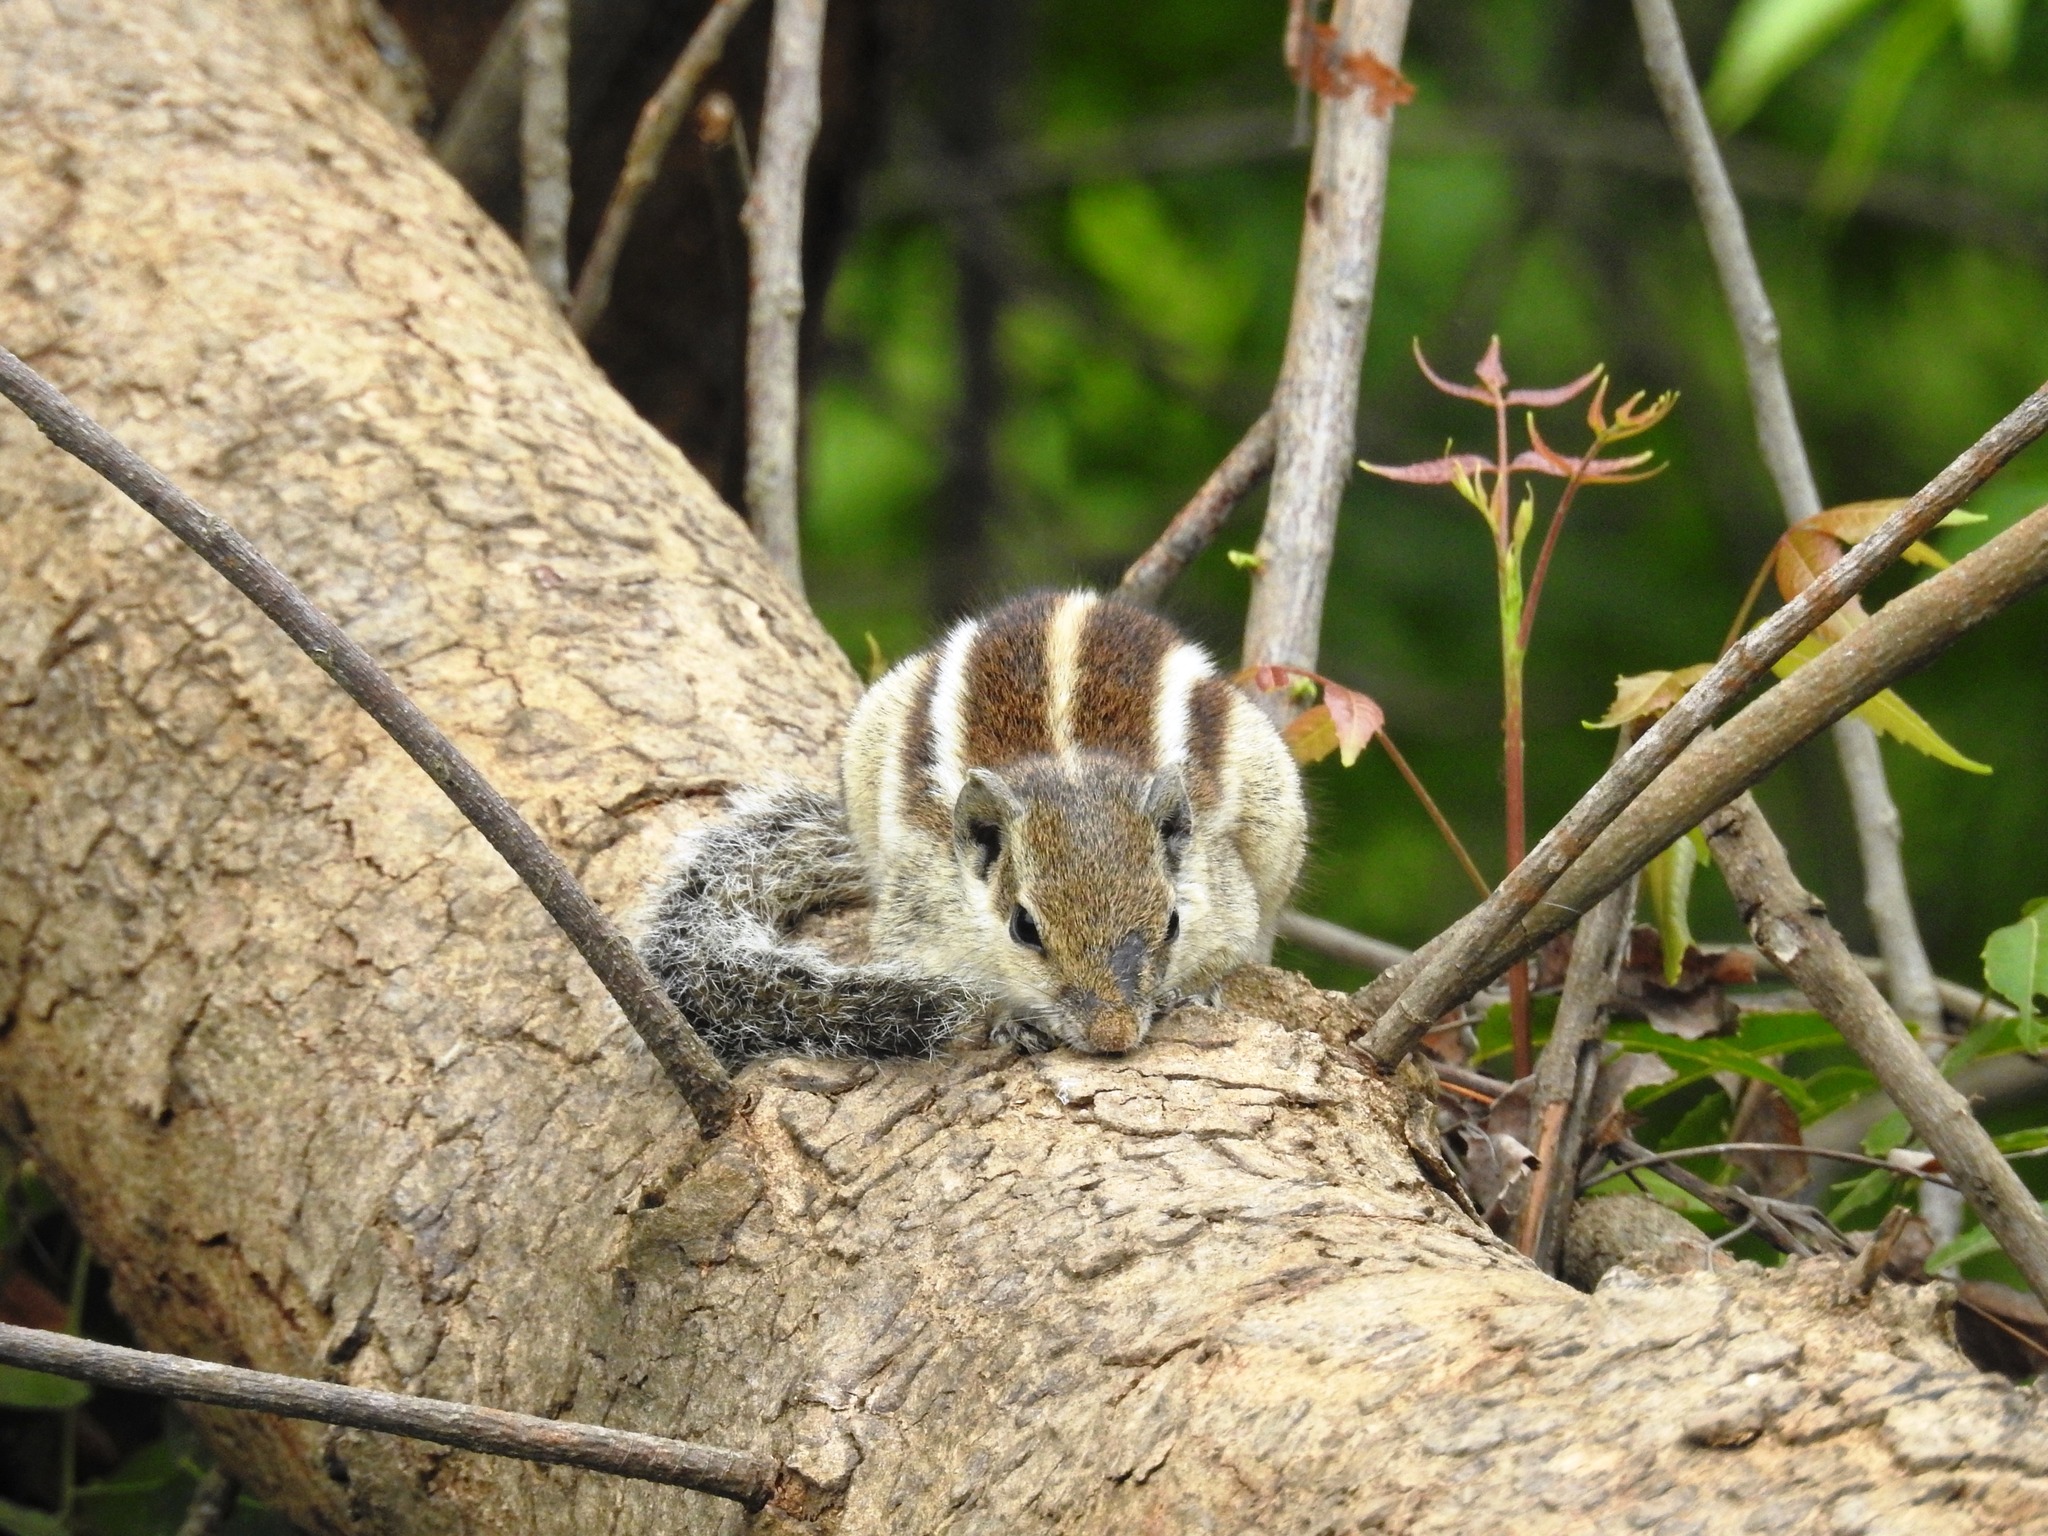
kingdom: Animalia
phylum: Chordata
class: Mammalia
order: Rodentia
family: Sciuridae
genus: Funambulus
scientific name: Funambulus pennantii
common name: Northern palm squirrel
